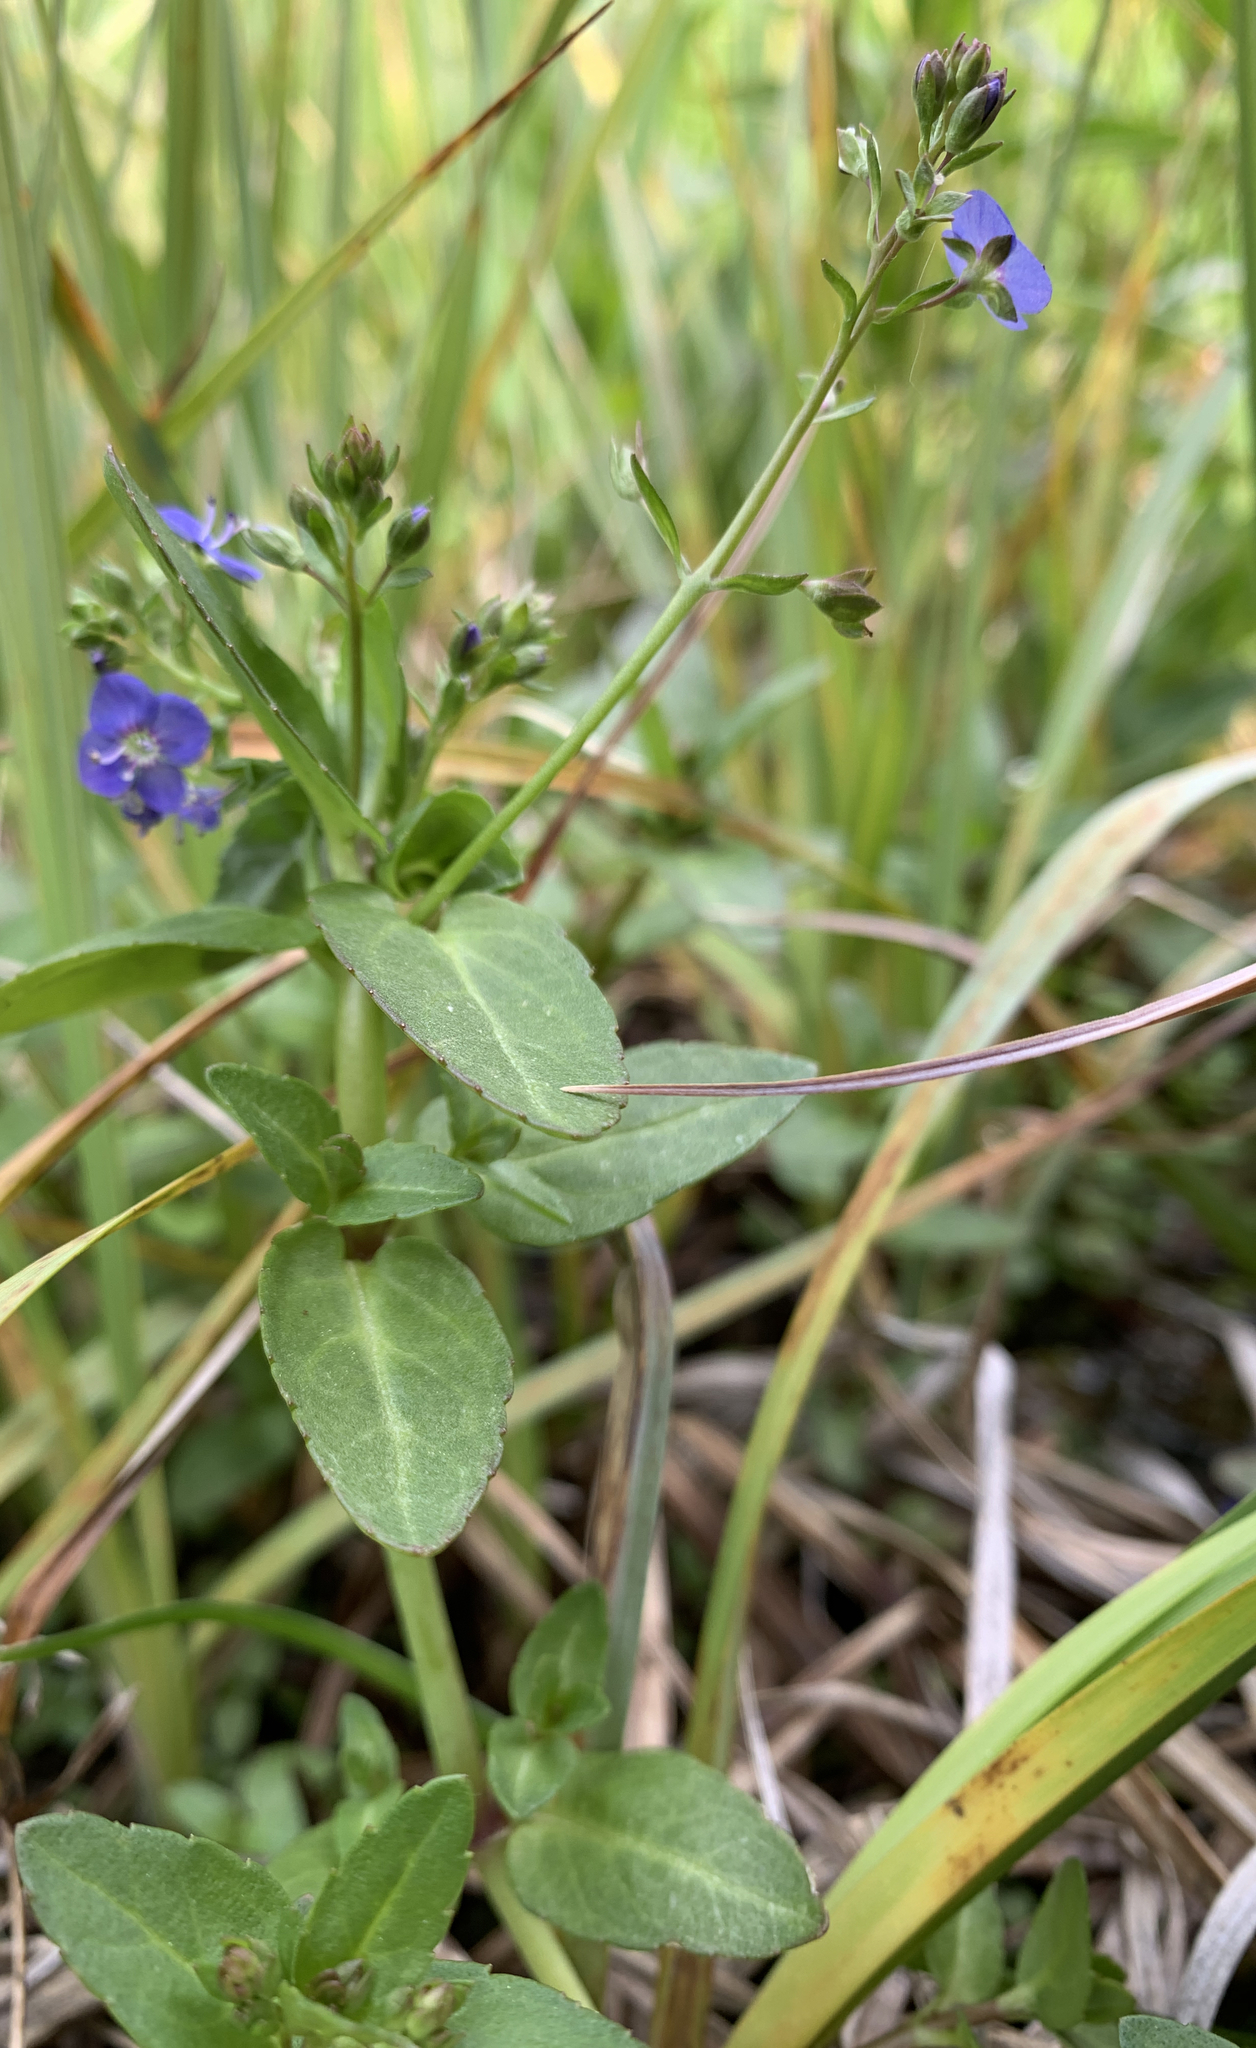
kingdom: Plantae
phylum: Tracheophyta
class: Magnoliopsida
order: Lamiales
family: Plantaginaceae
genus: Veronica
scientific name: Veronica americana
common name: American brooklime
